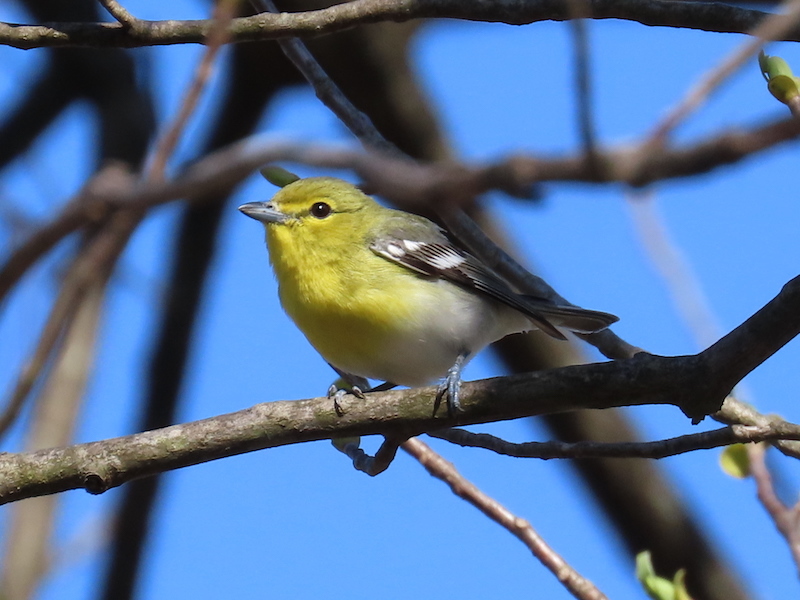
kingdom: Animalia
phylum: Chordata
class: Aves
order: Passeriformes
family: Vireonidae
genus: Vireo
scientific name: Vireo flavifrons
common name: Yellow-throated vireo
